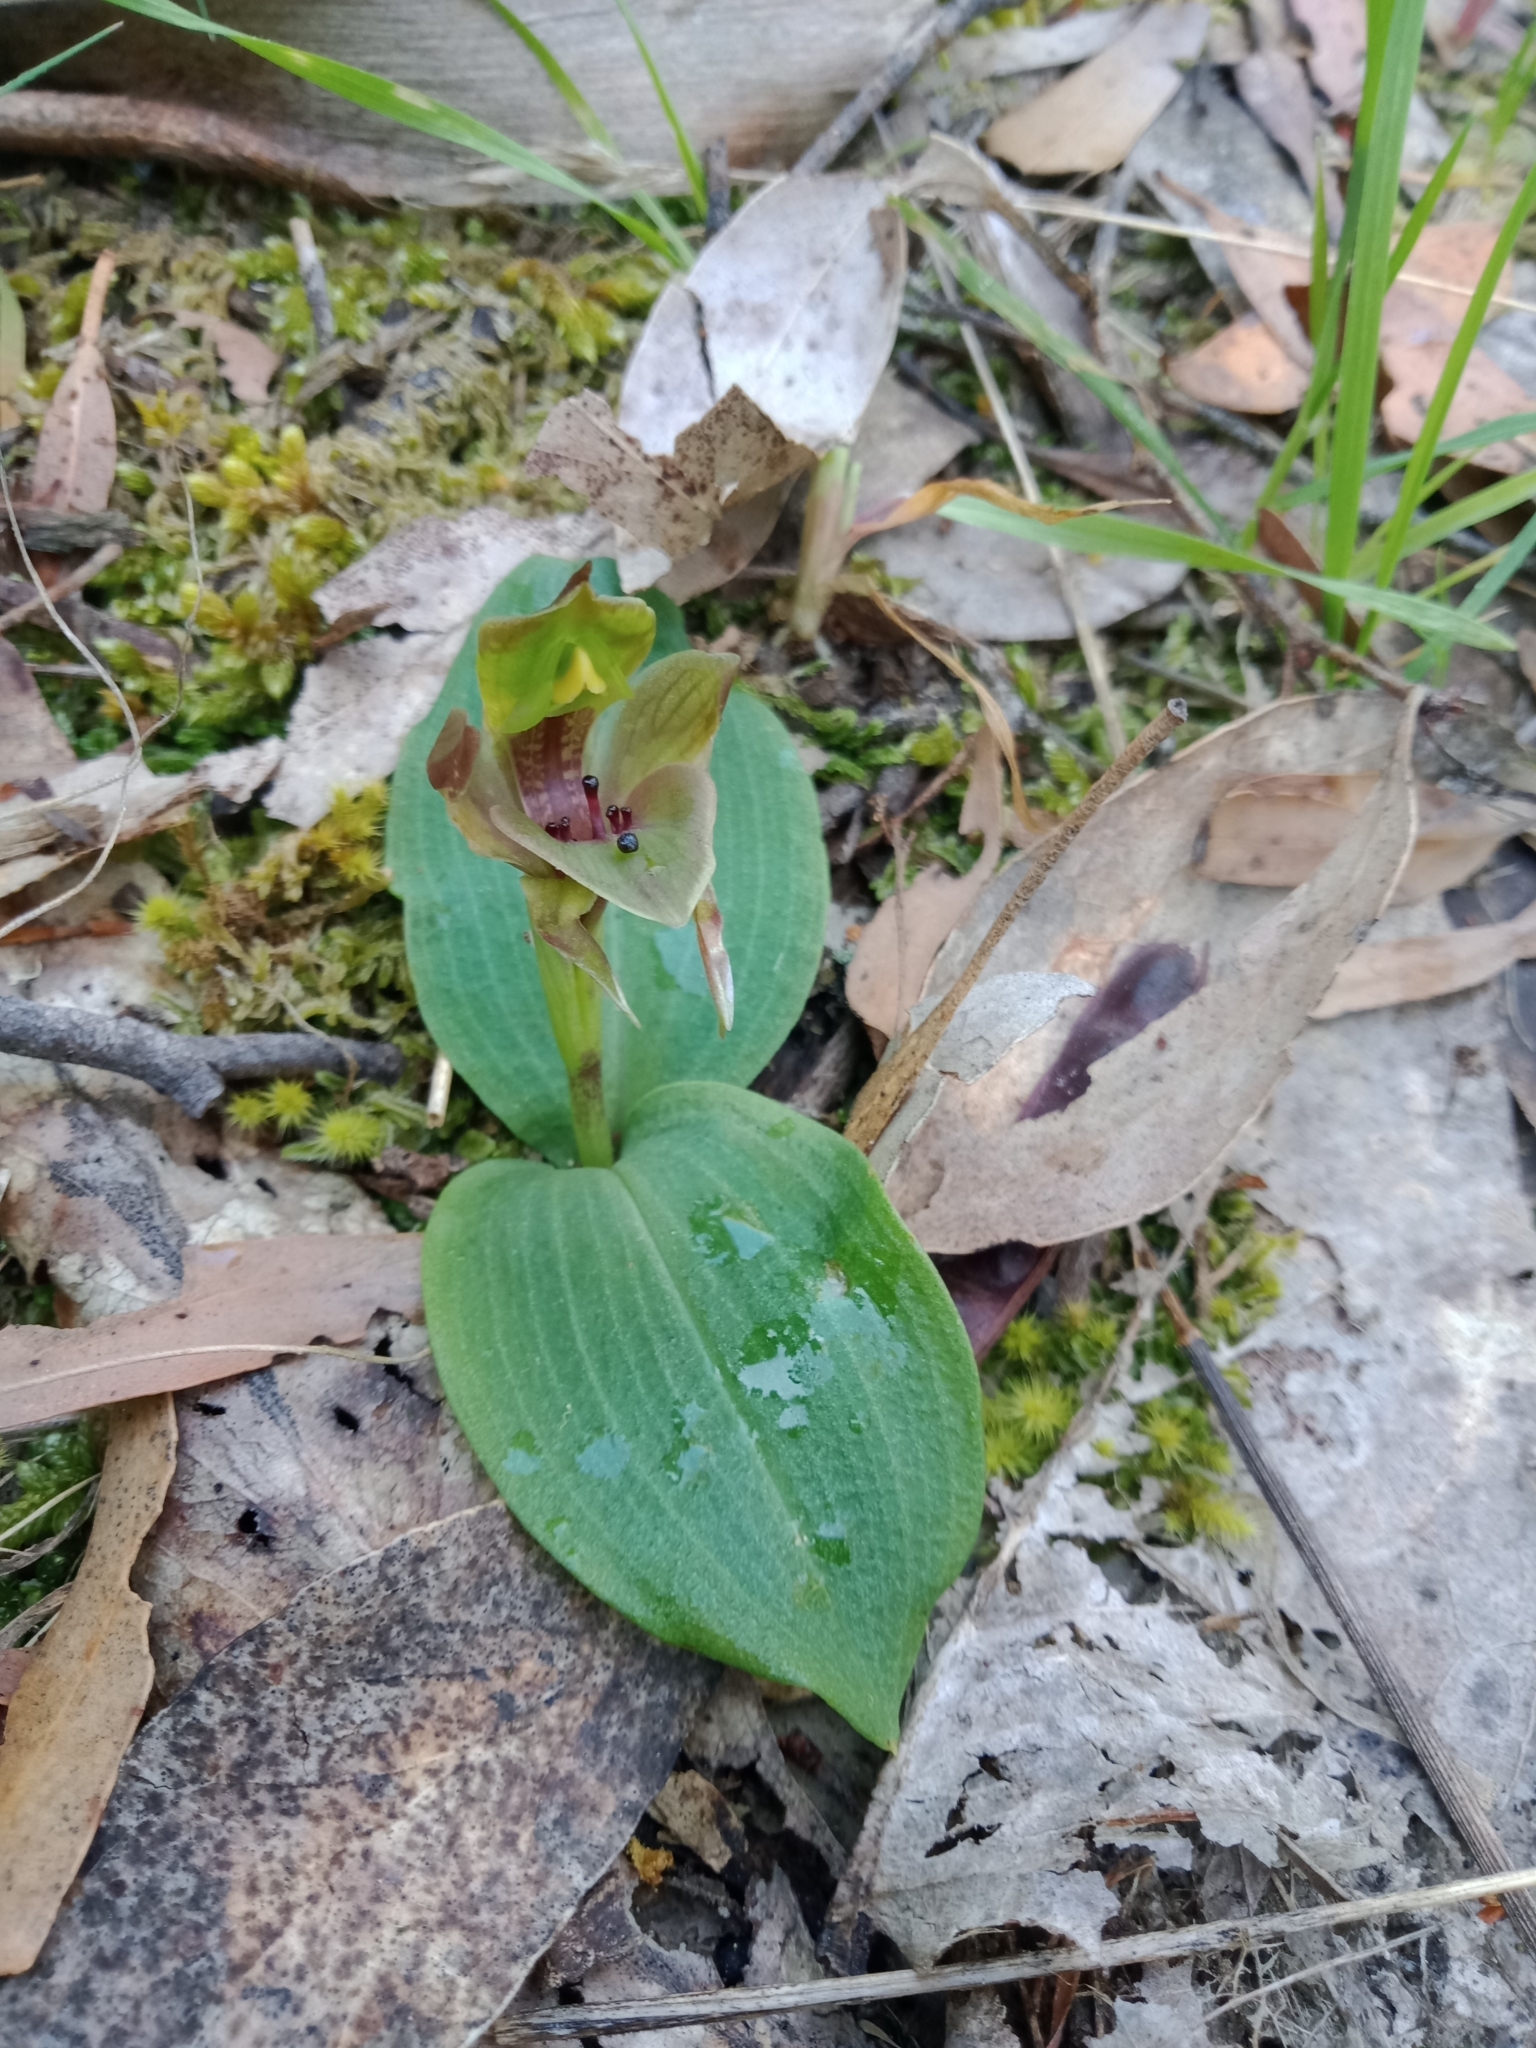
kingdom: Plantae
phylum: Tracheophyta
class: Liliopsida
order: Asparagales
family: Orchidaceae
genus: Chiloglottis
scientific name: Chiloglottis valida
